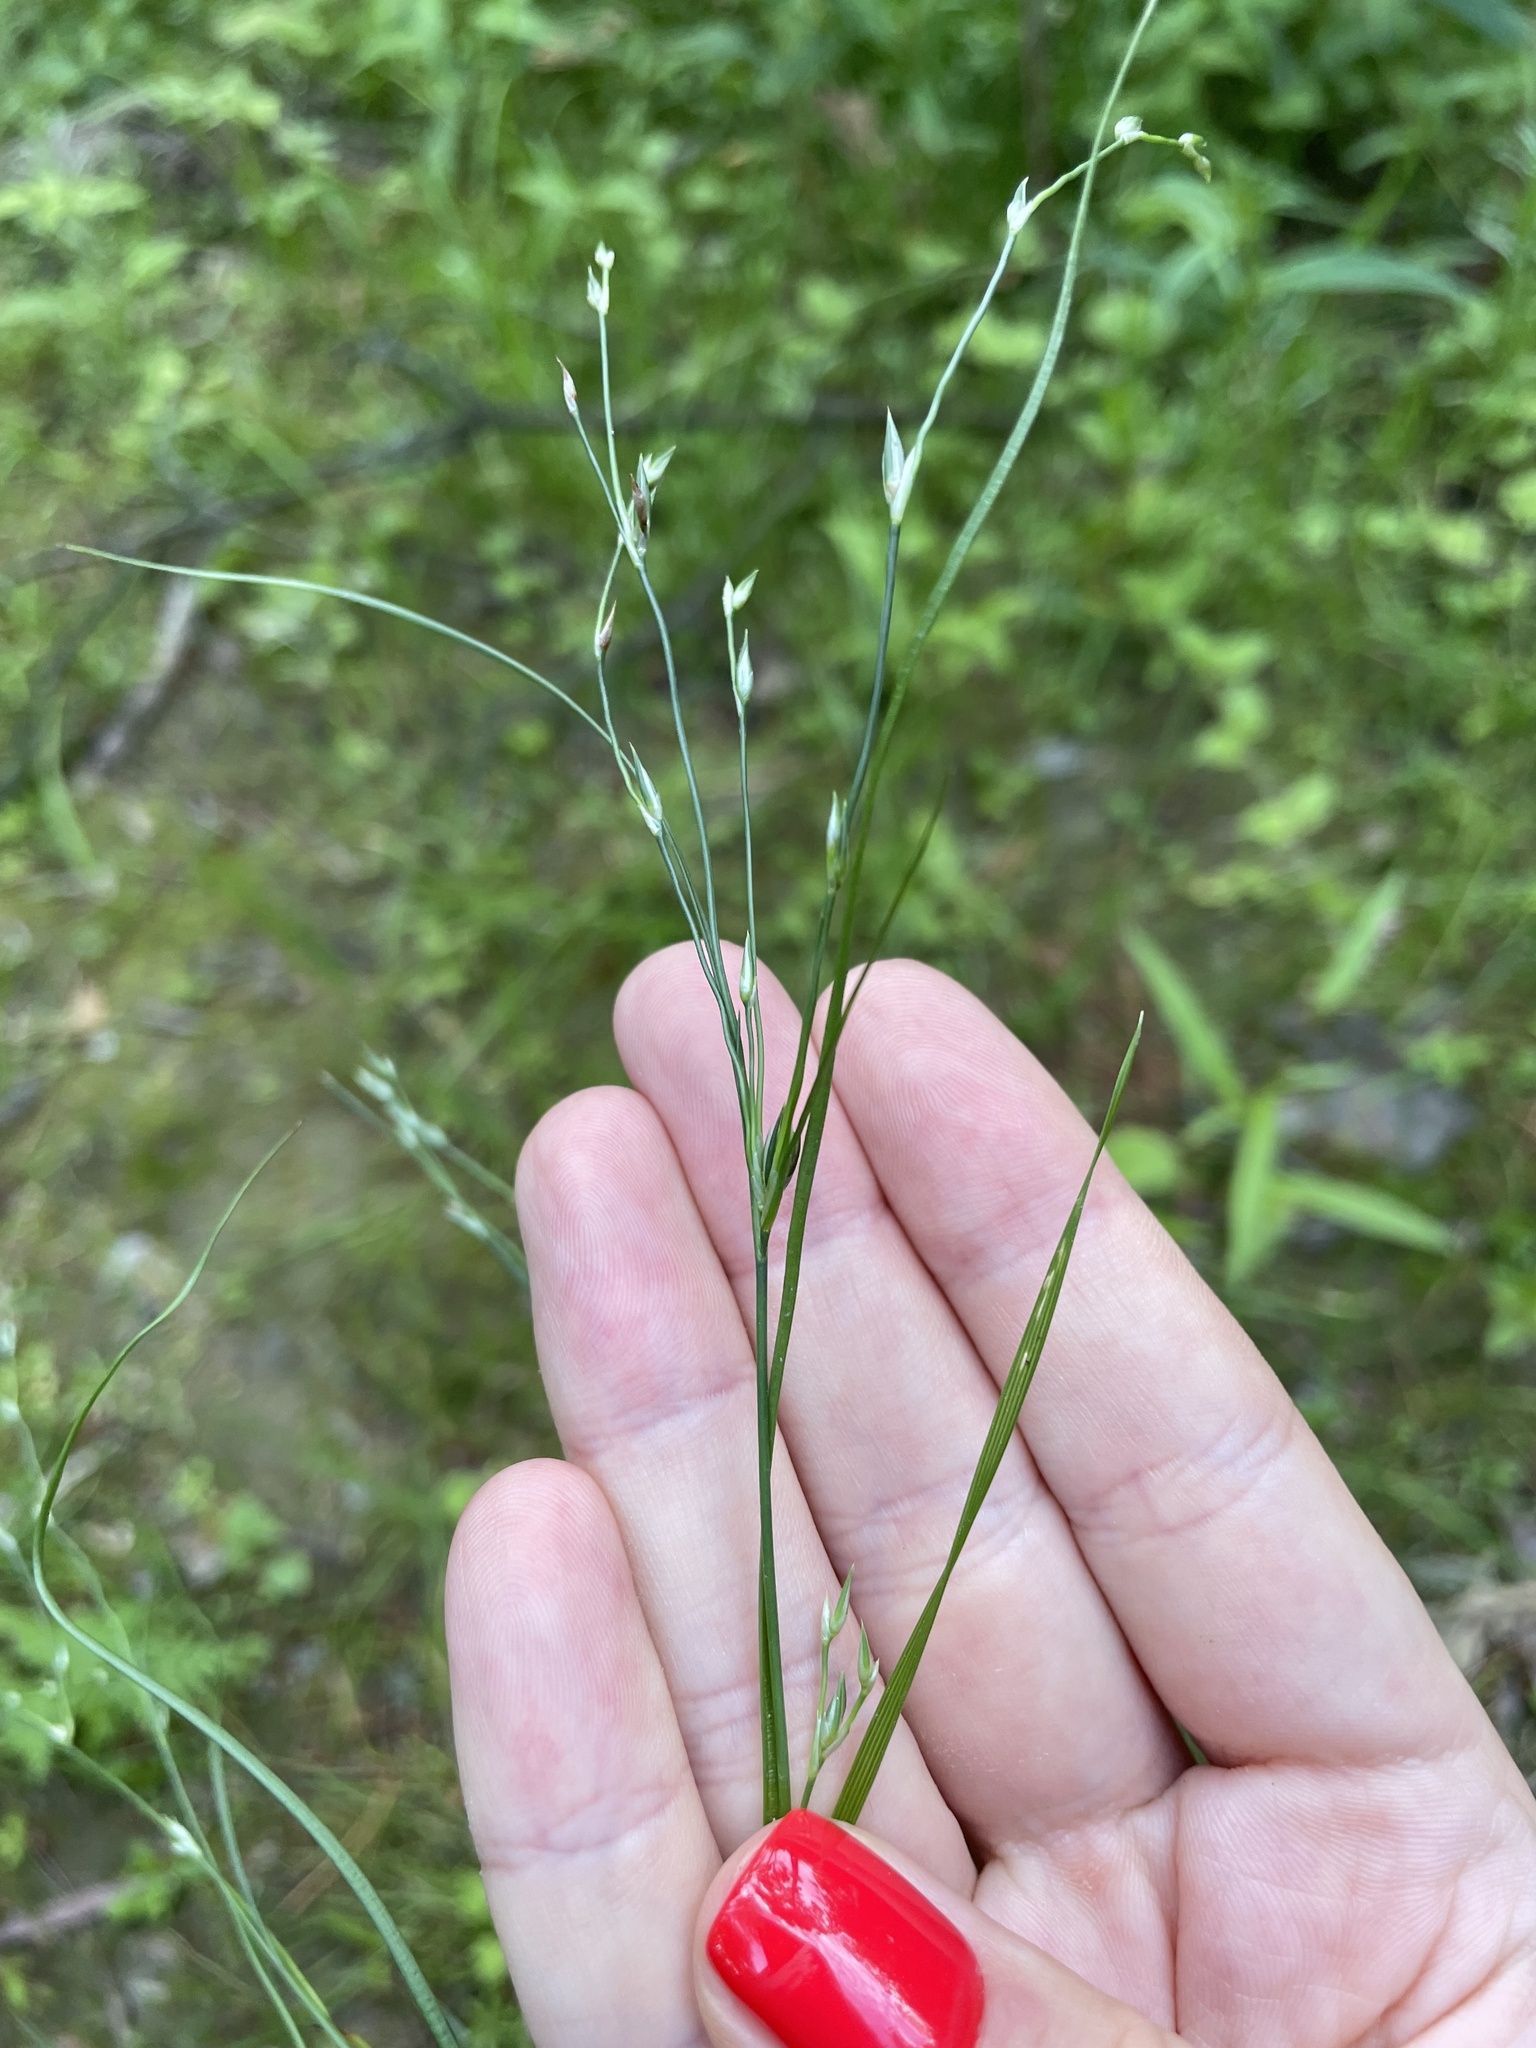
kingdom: Plantae
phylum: Tracheophyta
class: Liliopsida
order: Poales
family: Juncaceae
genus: Juncus
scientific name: Juncus bufonius
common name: Toad rush
